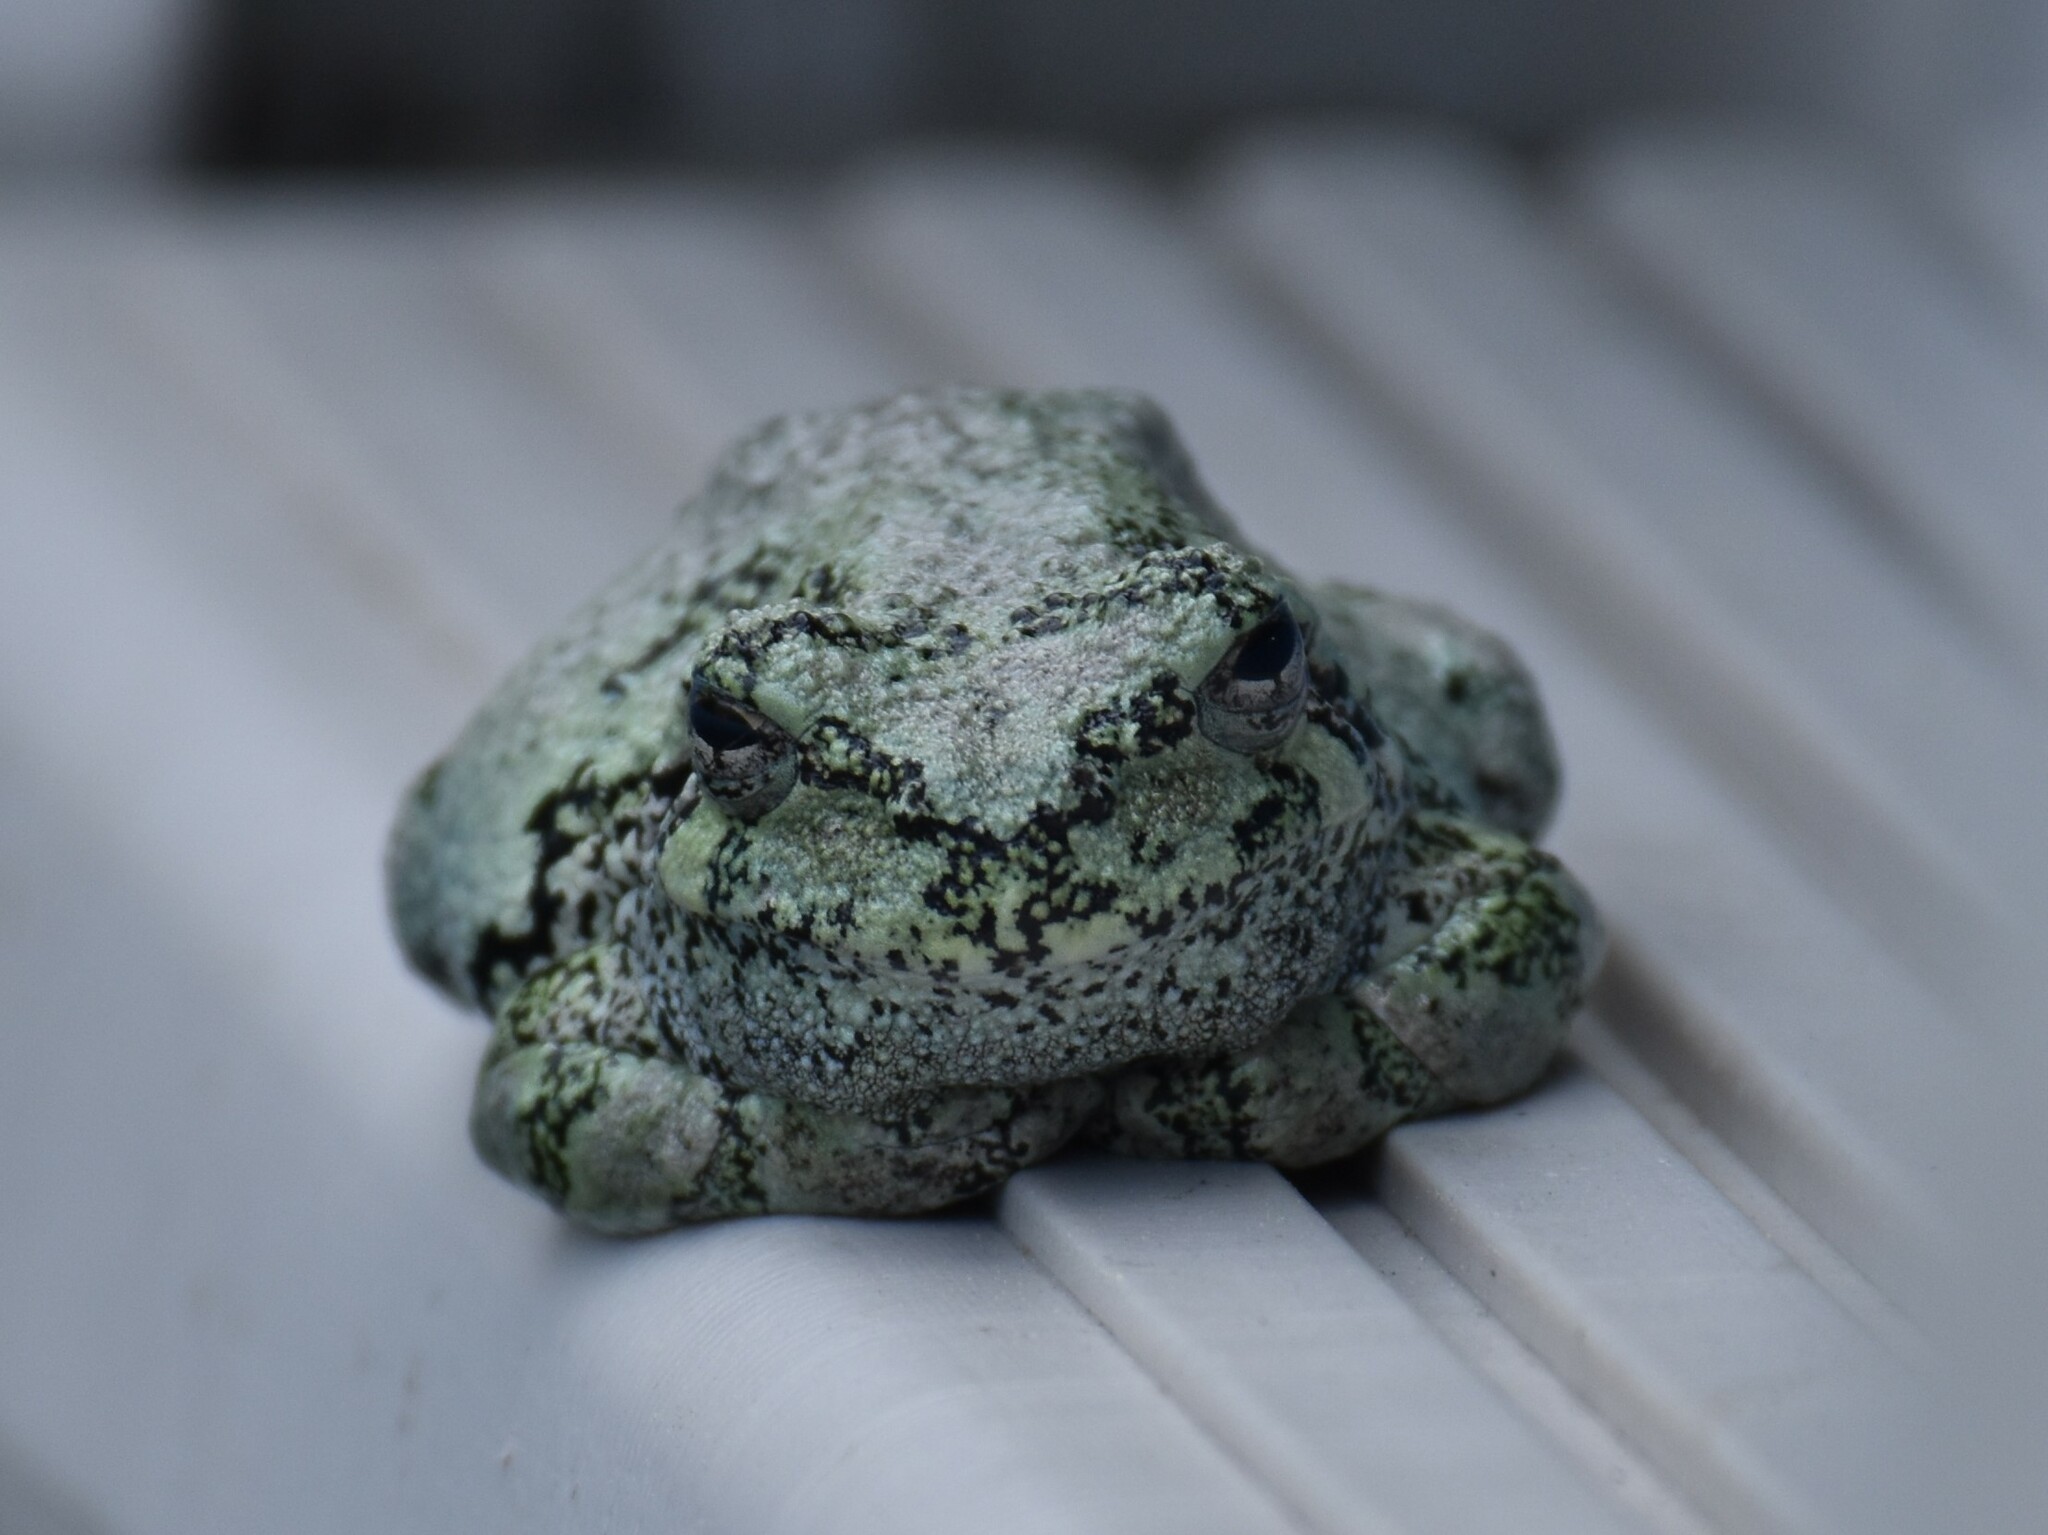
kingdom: Animalia
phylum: Chordata
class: Amphibia
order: Anura
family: Hylidae
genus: Dryophytes
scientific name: Dryophytes versicolor
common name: Gray treefrog
